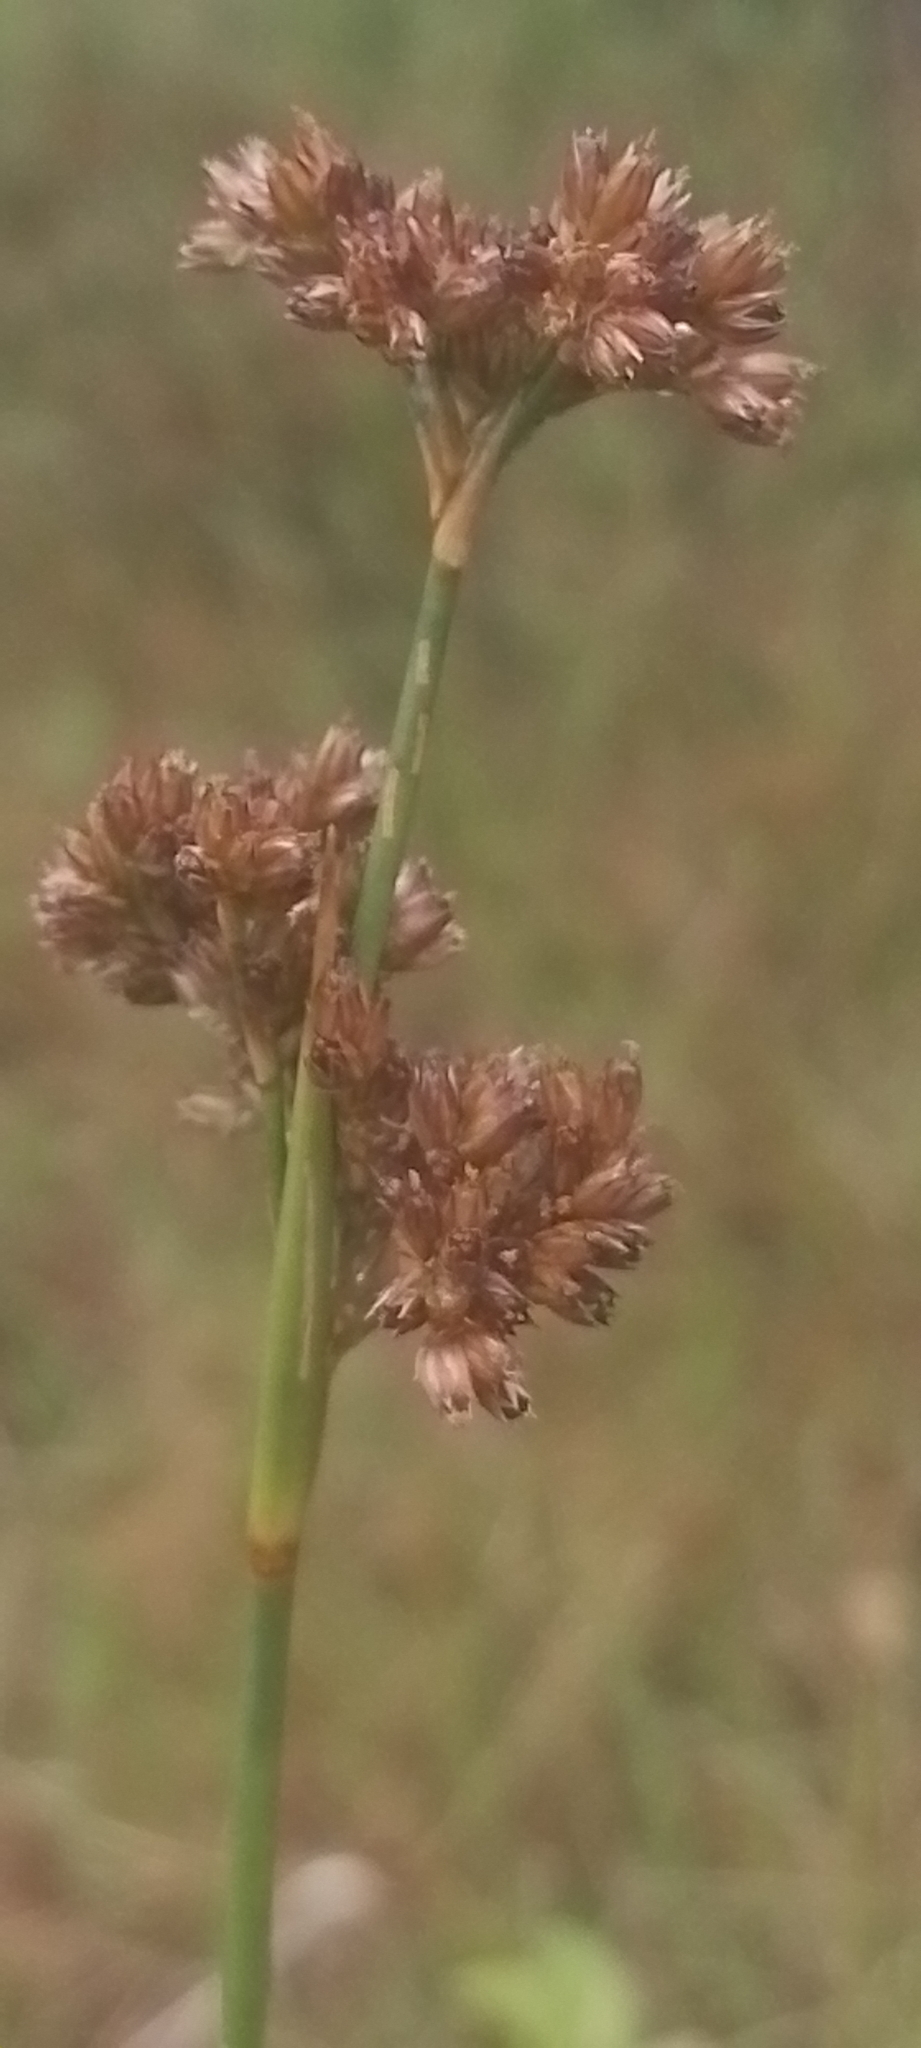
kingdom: Plantae
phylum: Tracheophyta
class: Liliopsida
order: Poales
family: Juncaceae
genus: Juncus
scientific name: Juncus microcephalus
